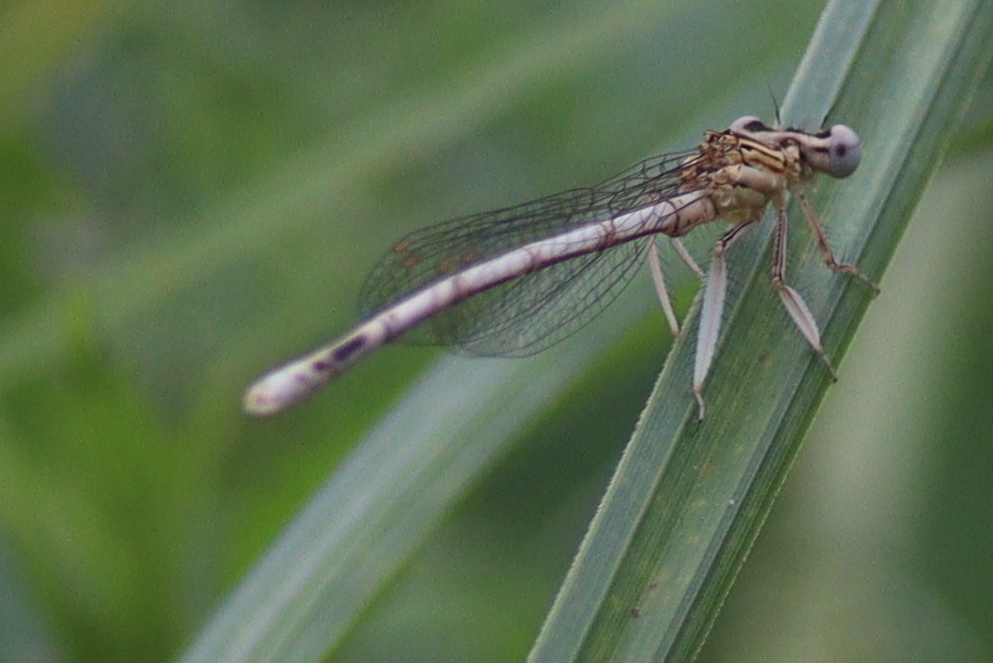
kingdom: Animalia
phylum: Arthropoda
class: Insecta
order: Odonata
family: Platycnemididae
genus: Platycnemis
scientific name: Platycnemis pennipes
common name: White-legged damselfly
